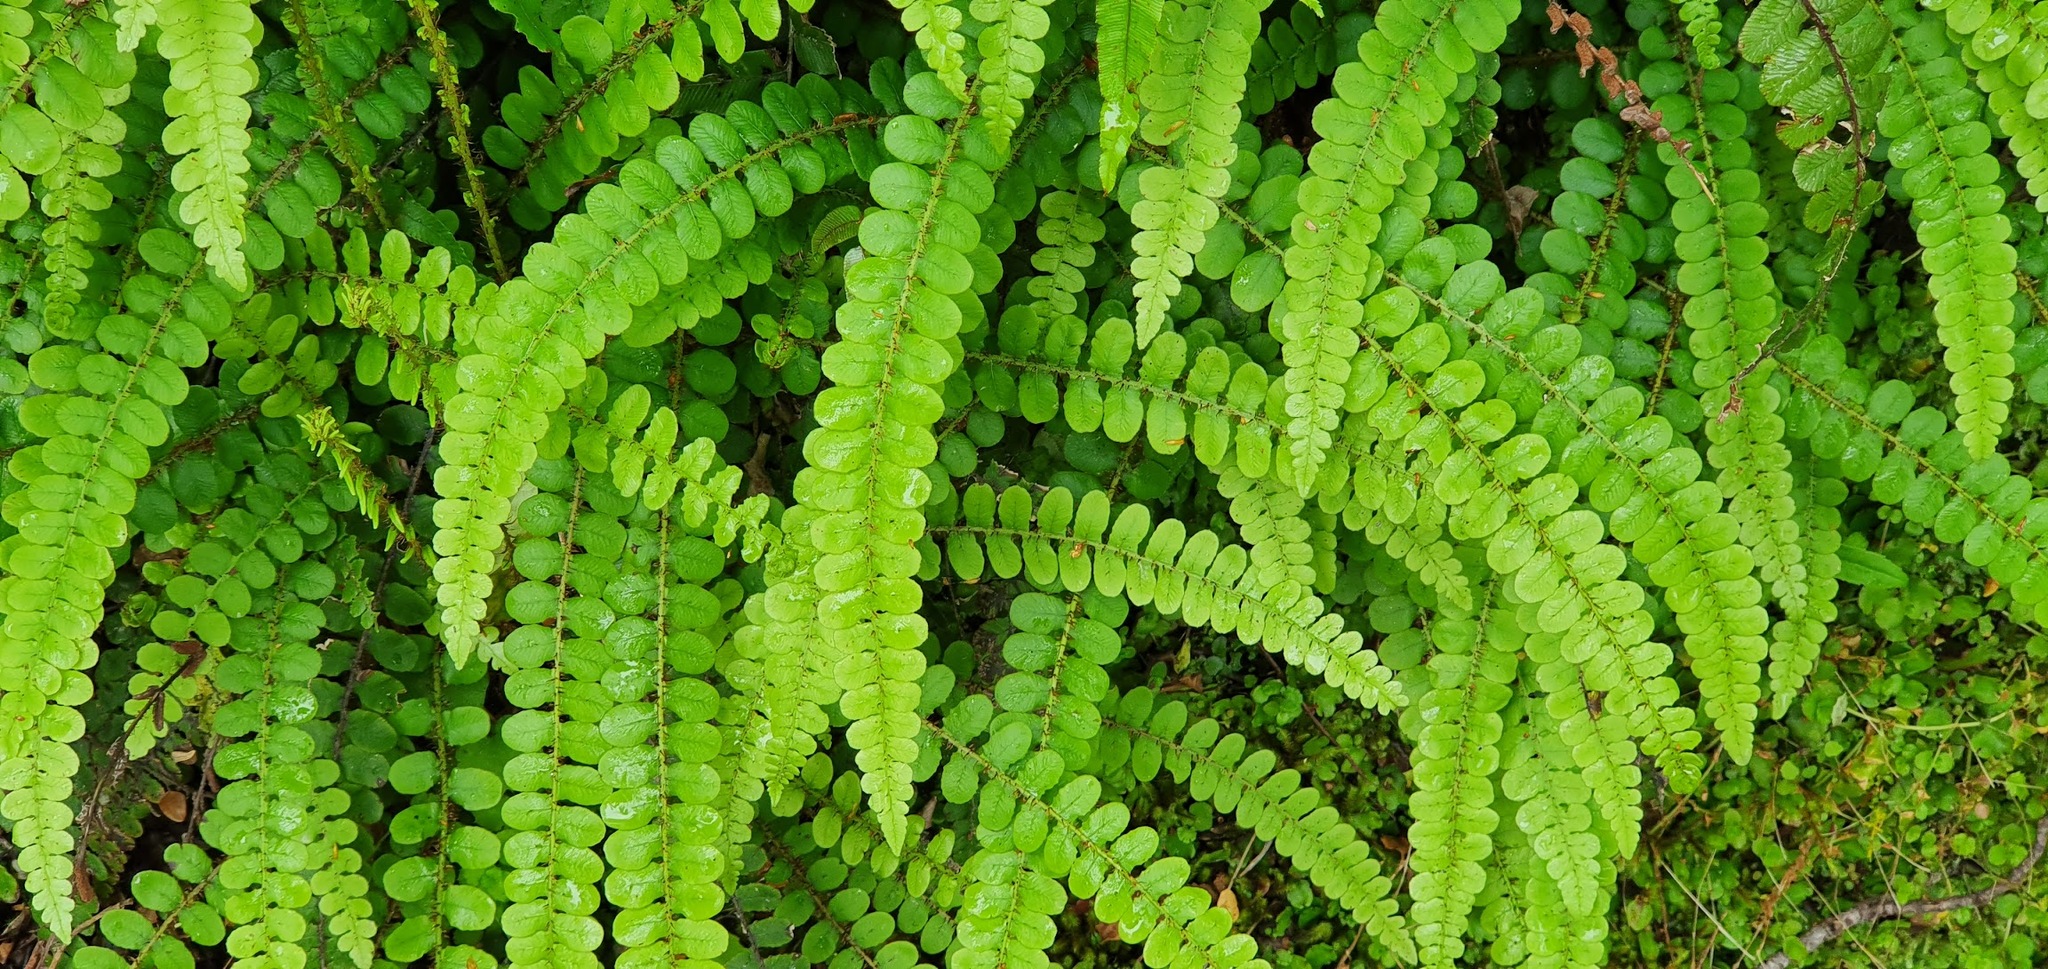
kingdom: Plantae
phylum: Tracheophyta
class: Polypodiopsida
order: Polypodiales
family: Blechnaceae
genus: Cranfillia
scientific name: Cranfillia fluviatilis
